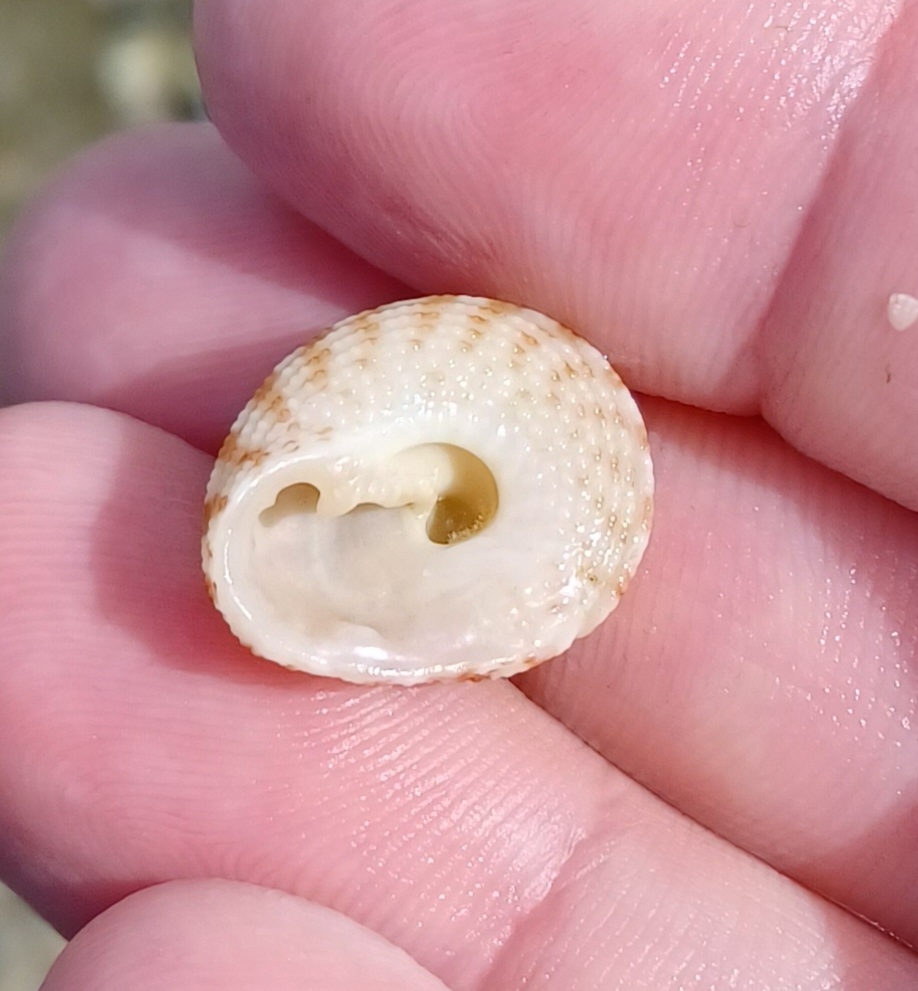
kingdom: Animalia
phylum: Mollusca
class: Gastropoda
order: Trochida
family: Trochidae
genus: Clanculus
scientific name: Clanculus flagellatus
